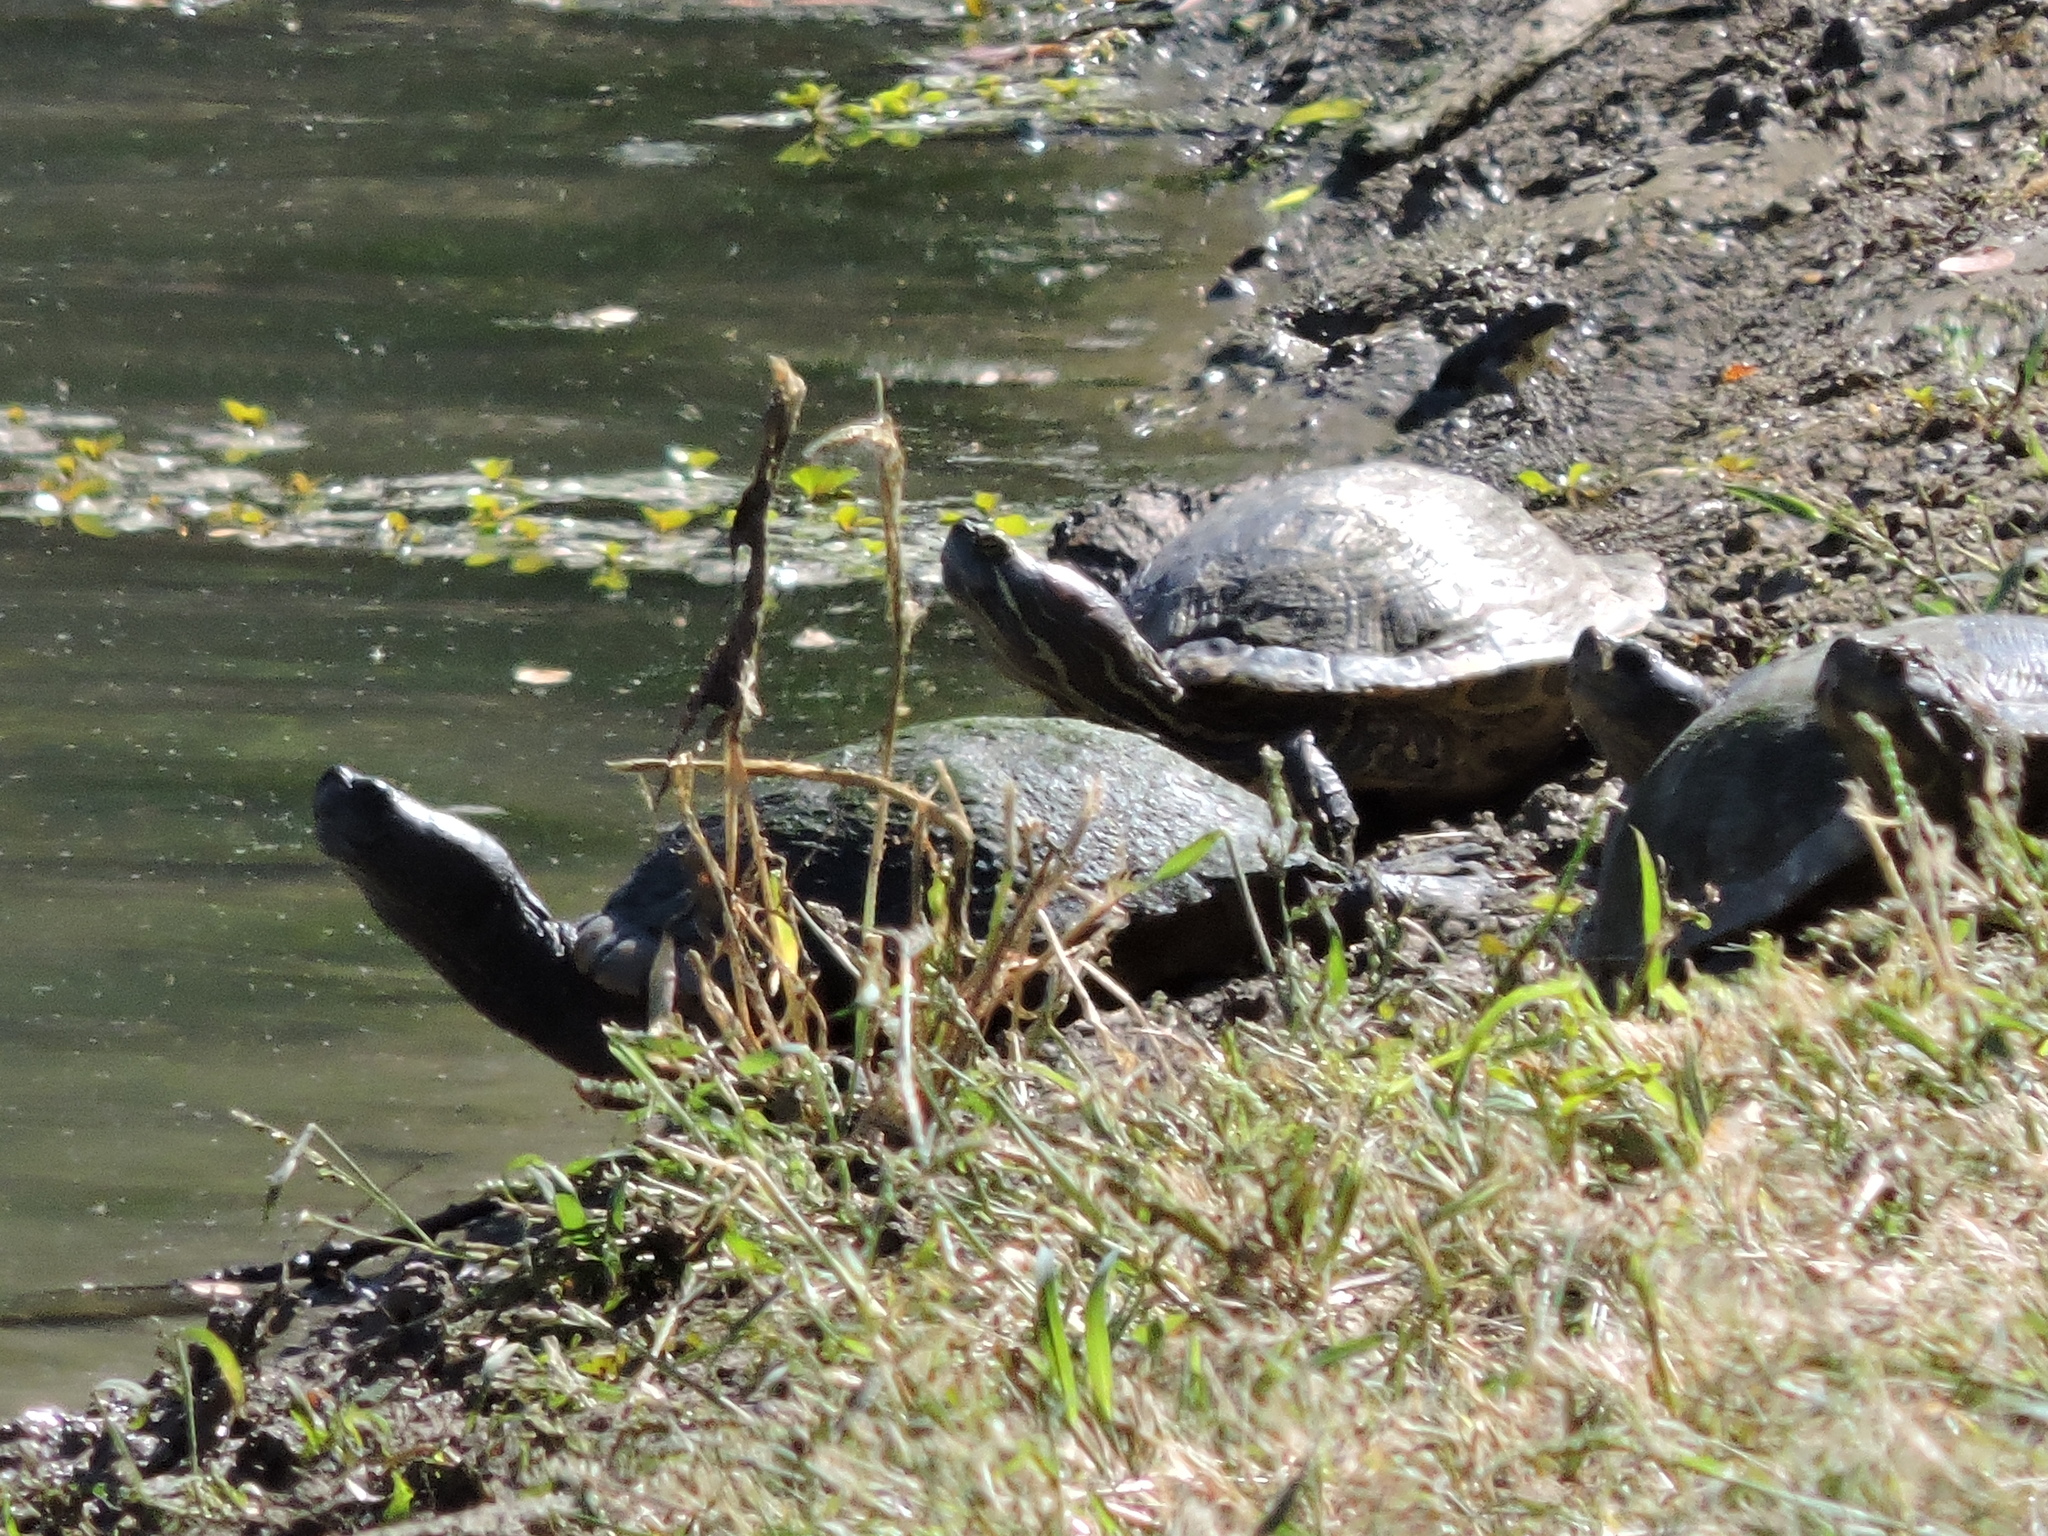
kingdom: Animalia
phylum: Chordata
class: Testudines
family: Emydidae
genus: Trachemys
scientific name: Trachemys scripta
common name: Slider
